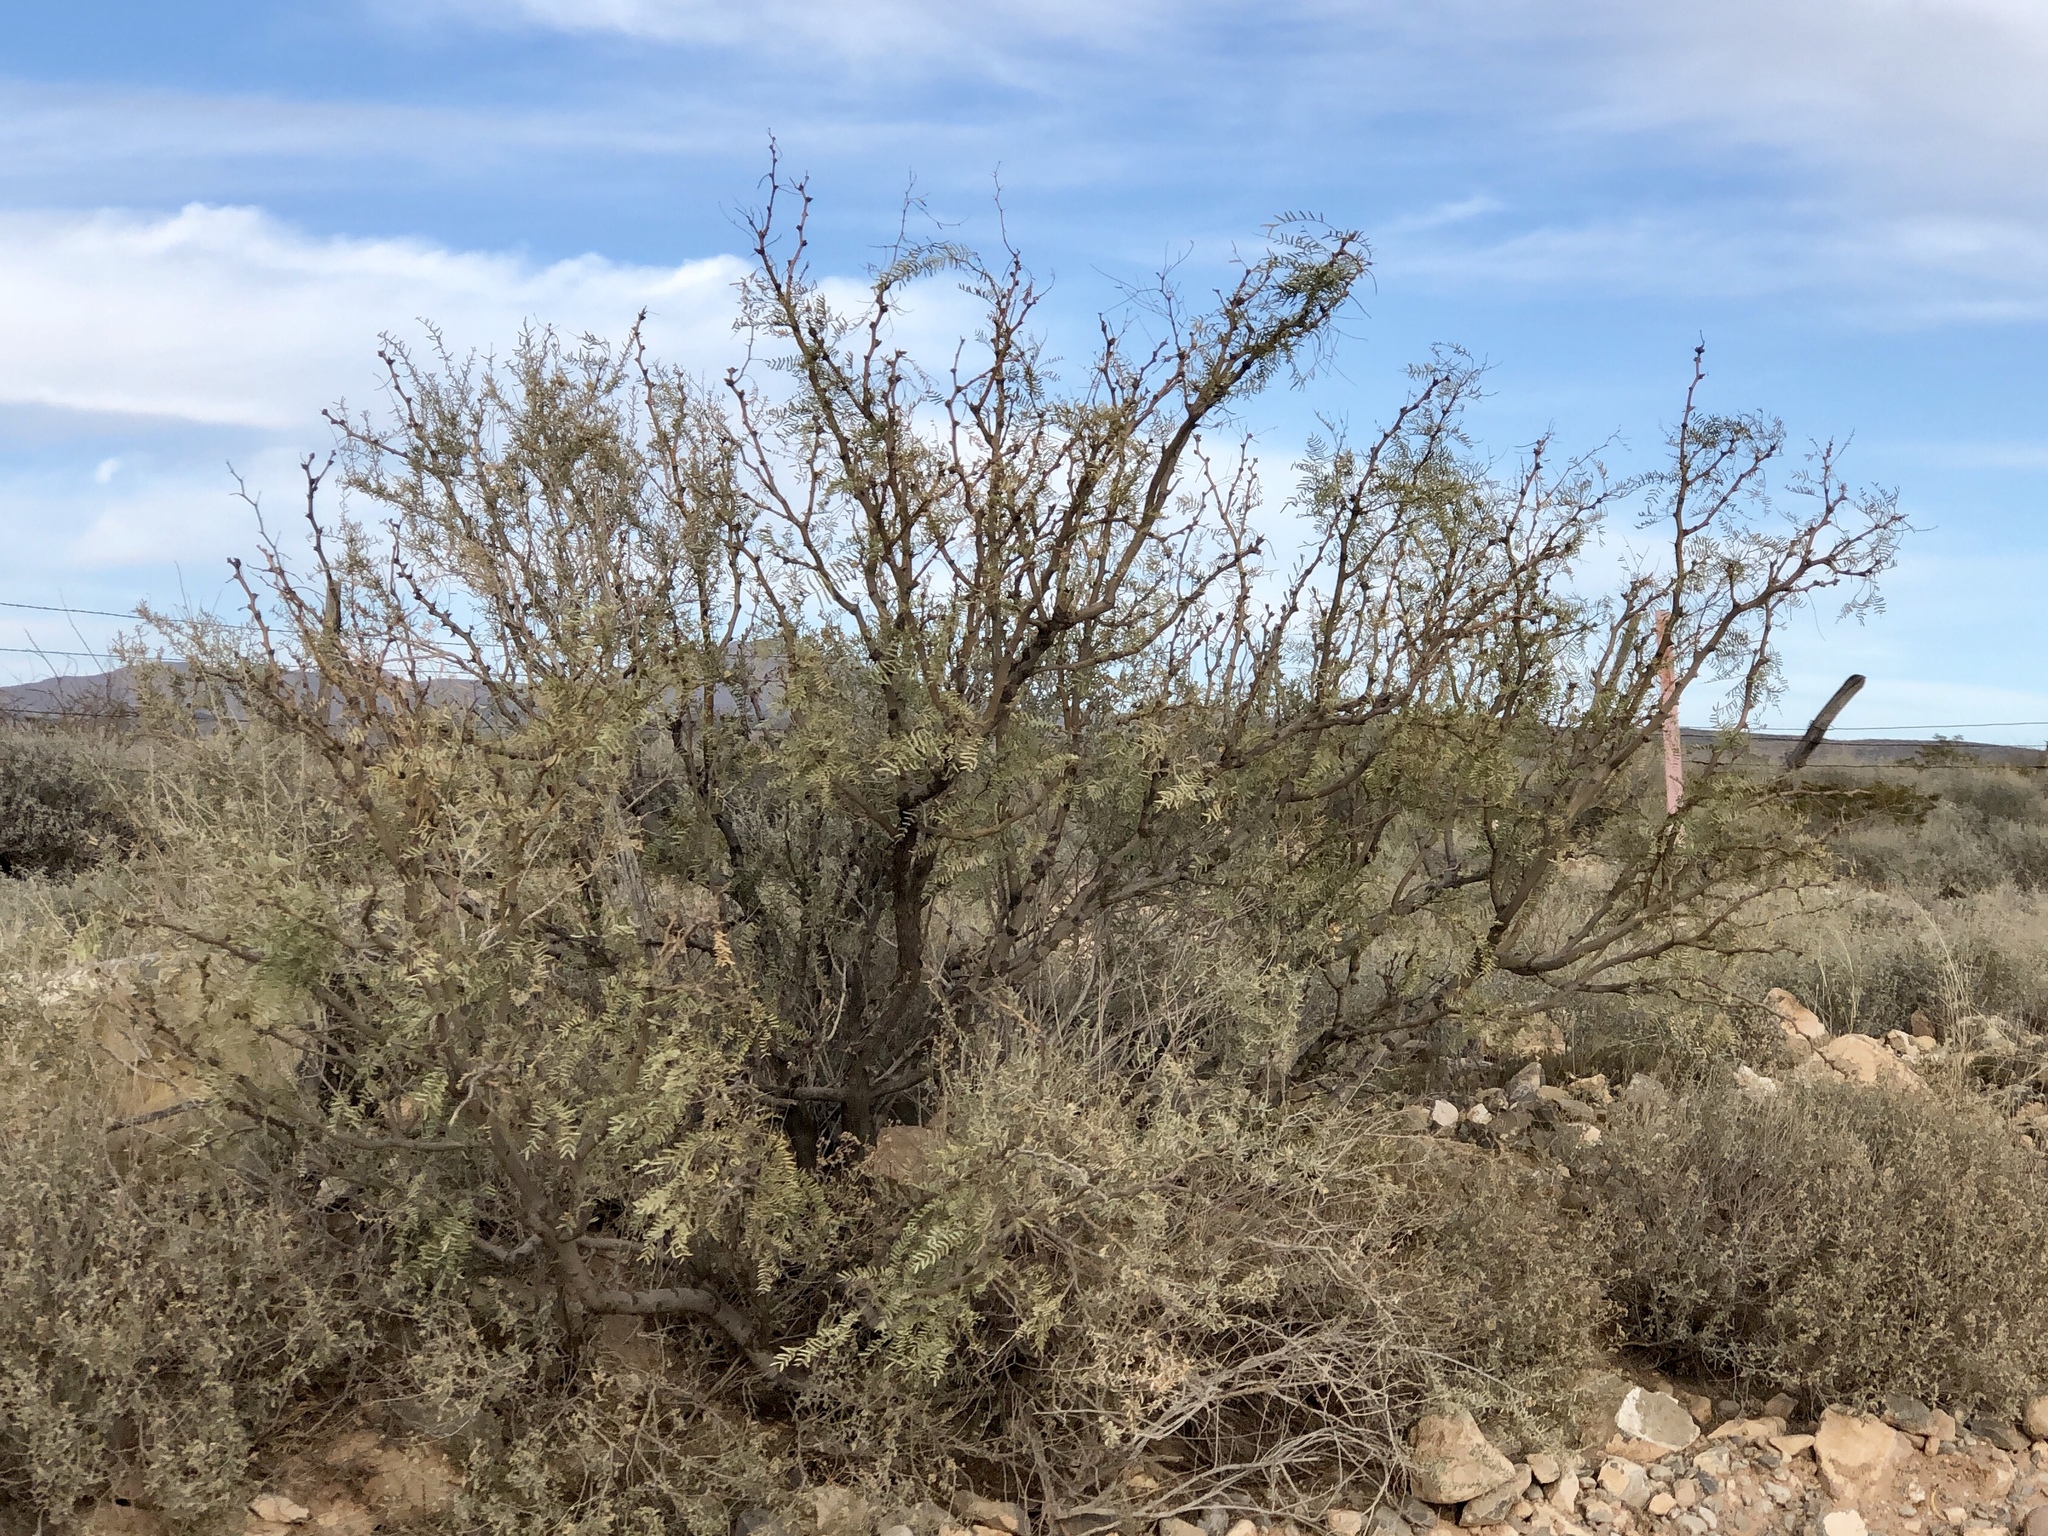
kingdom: Plantae
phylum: Tracheophyta
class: Magnoliopsida
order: Fabales
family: Fabaceae
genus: Prosopis
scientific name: Prosopis glandulosa
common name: Honey mesquite
